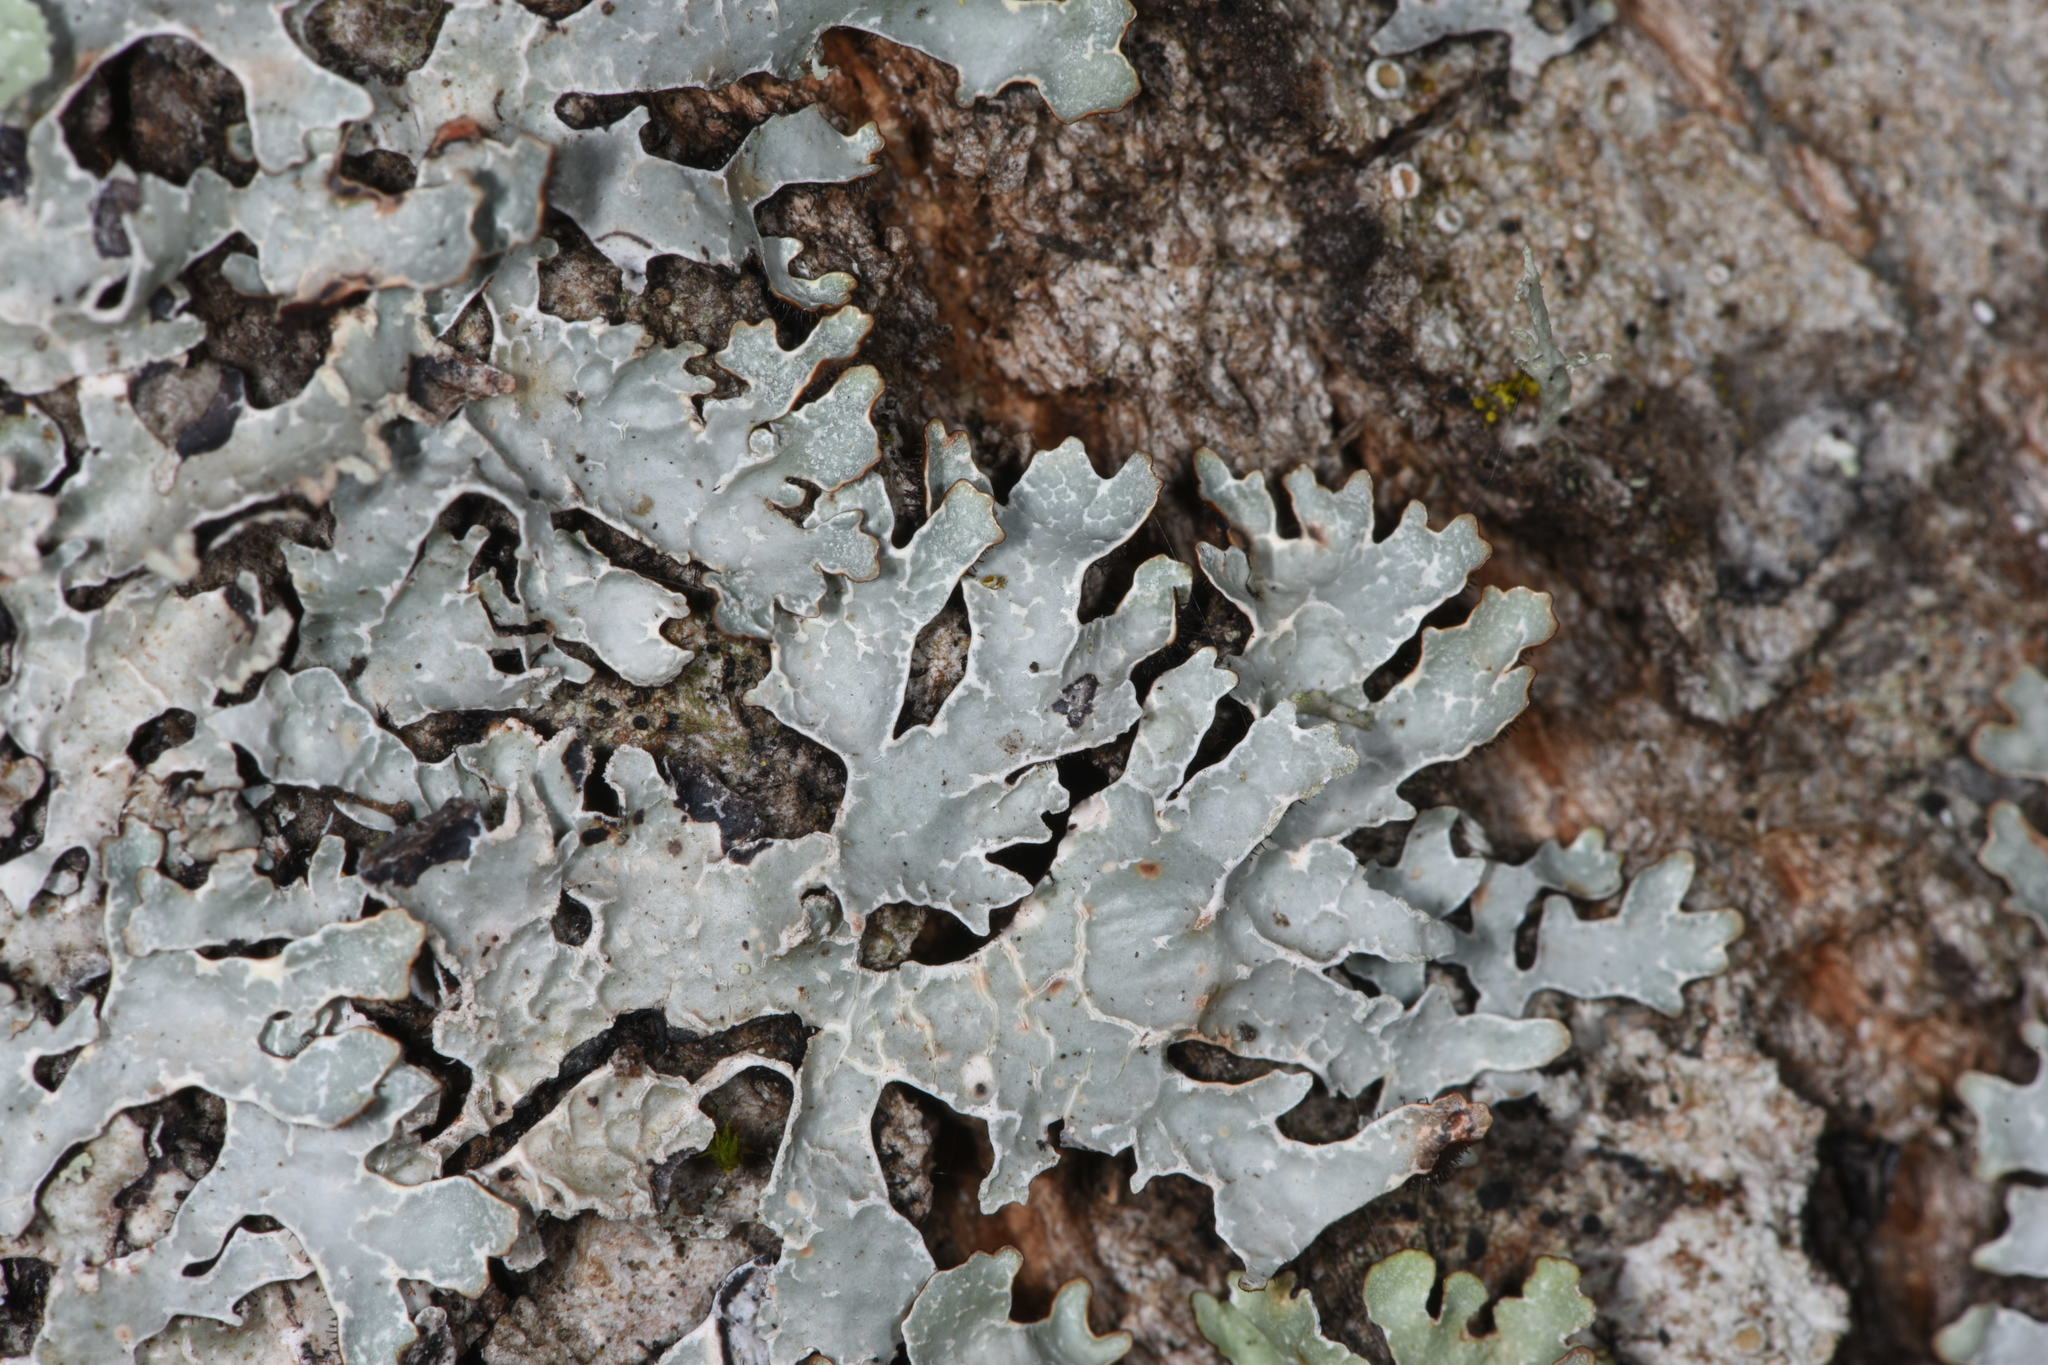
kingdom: Fungi
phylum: Ascomycota
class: Lecanoromycetes
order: Lecanorales
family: Parmeliaceae
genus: Parmelia
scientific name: Parmelia sulcata
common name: Netted shield lichen
